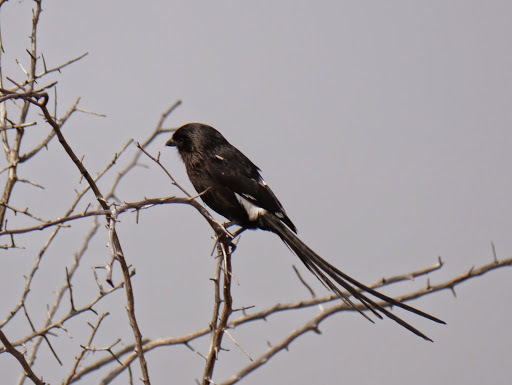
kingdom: Animalia
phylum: Chordata
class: Aves
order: Passeriformes
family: Laniidae
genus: Urolestes
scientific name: Urolestes melanoleucus
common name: Magpie shrike
